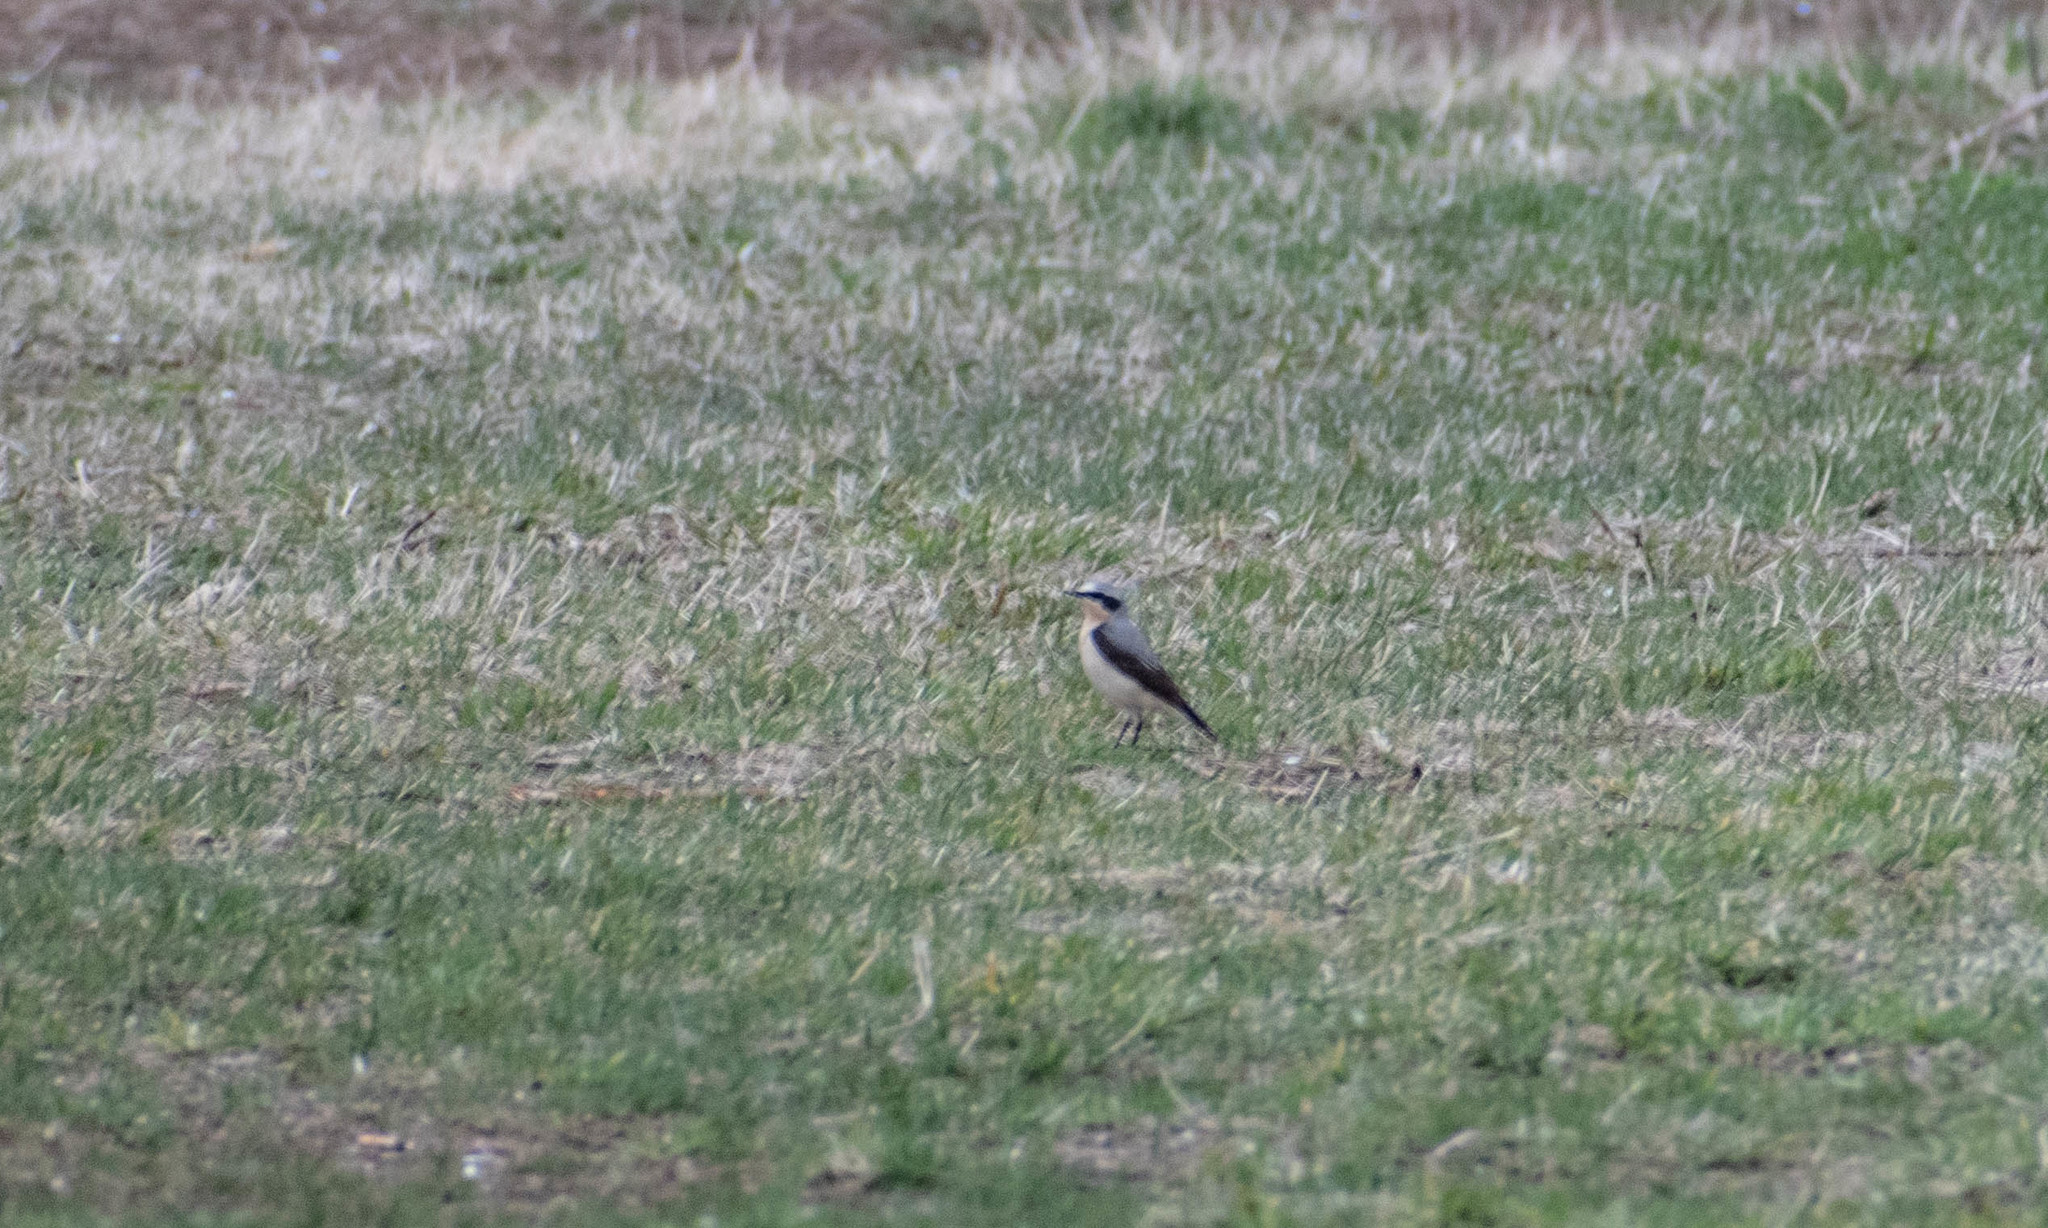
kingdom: Animalia
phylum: Chordata
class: Aves
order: Passeriformes
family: Muscicapidae
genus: Oenanthe
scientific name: Oenanthe oenanthe
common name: Northern wheatear
